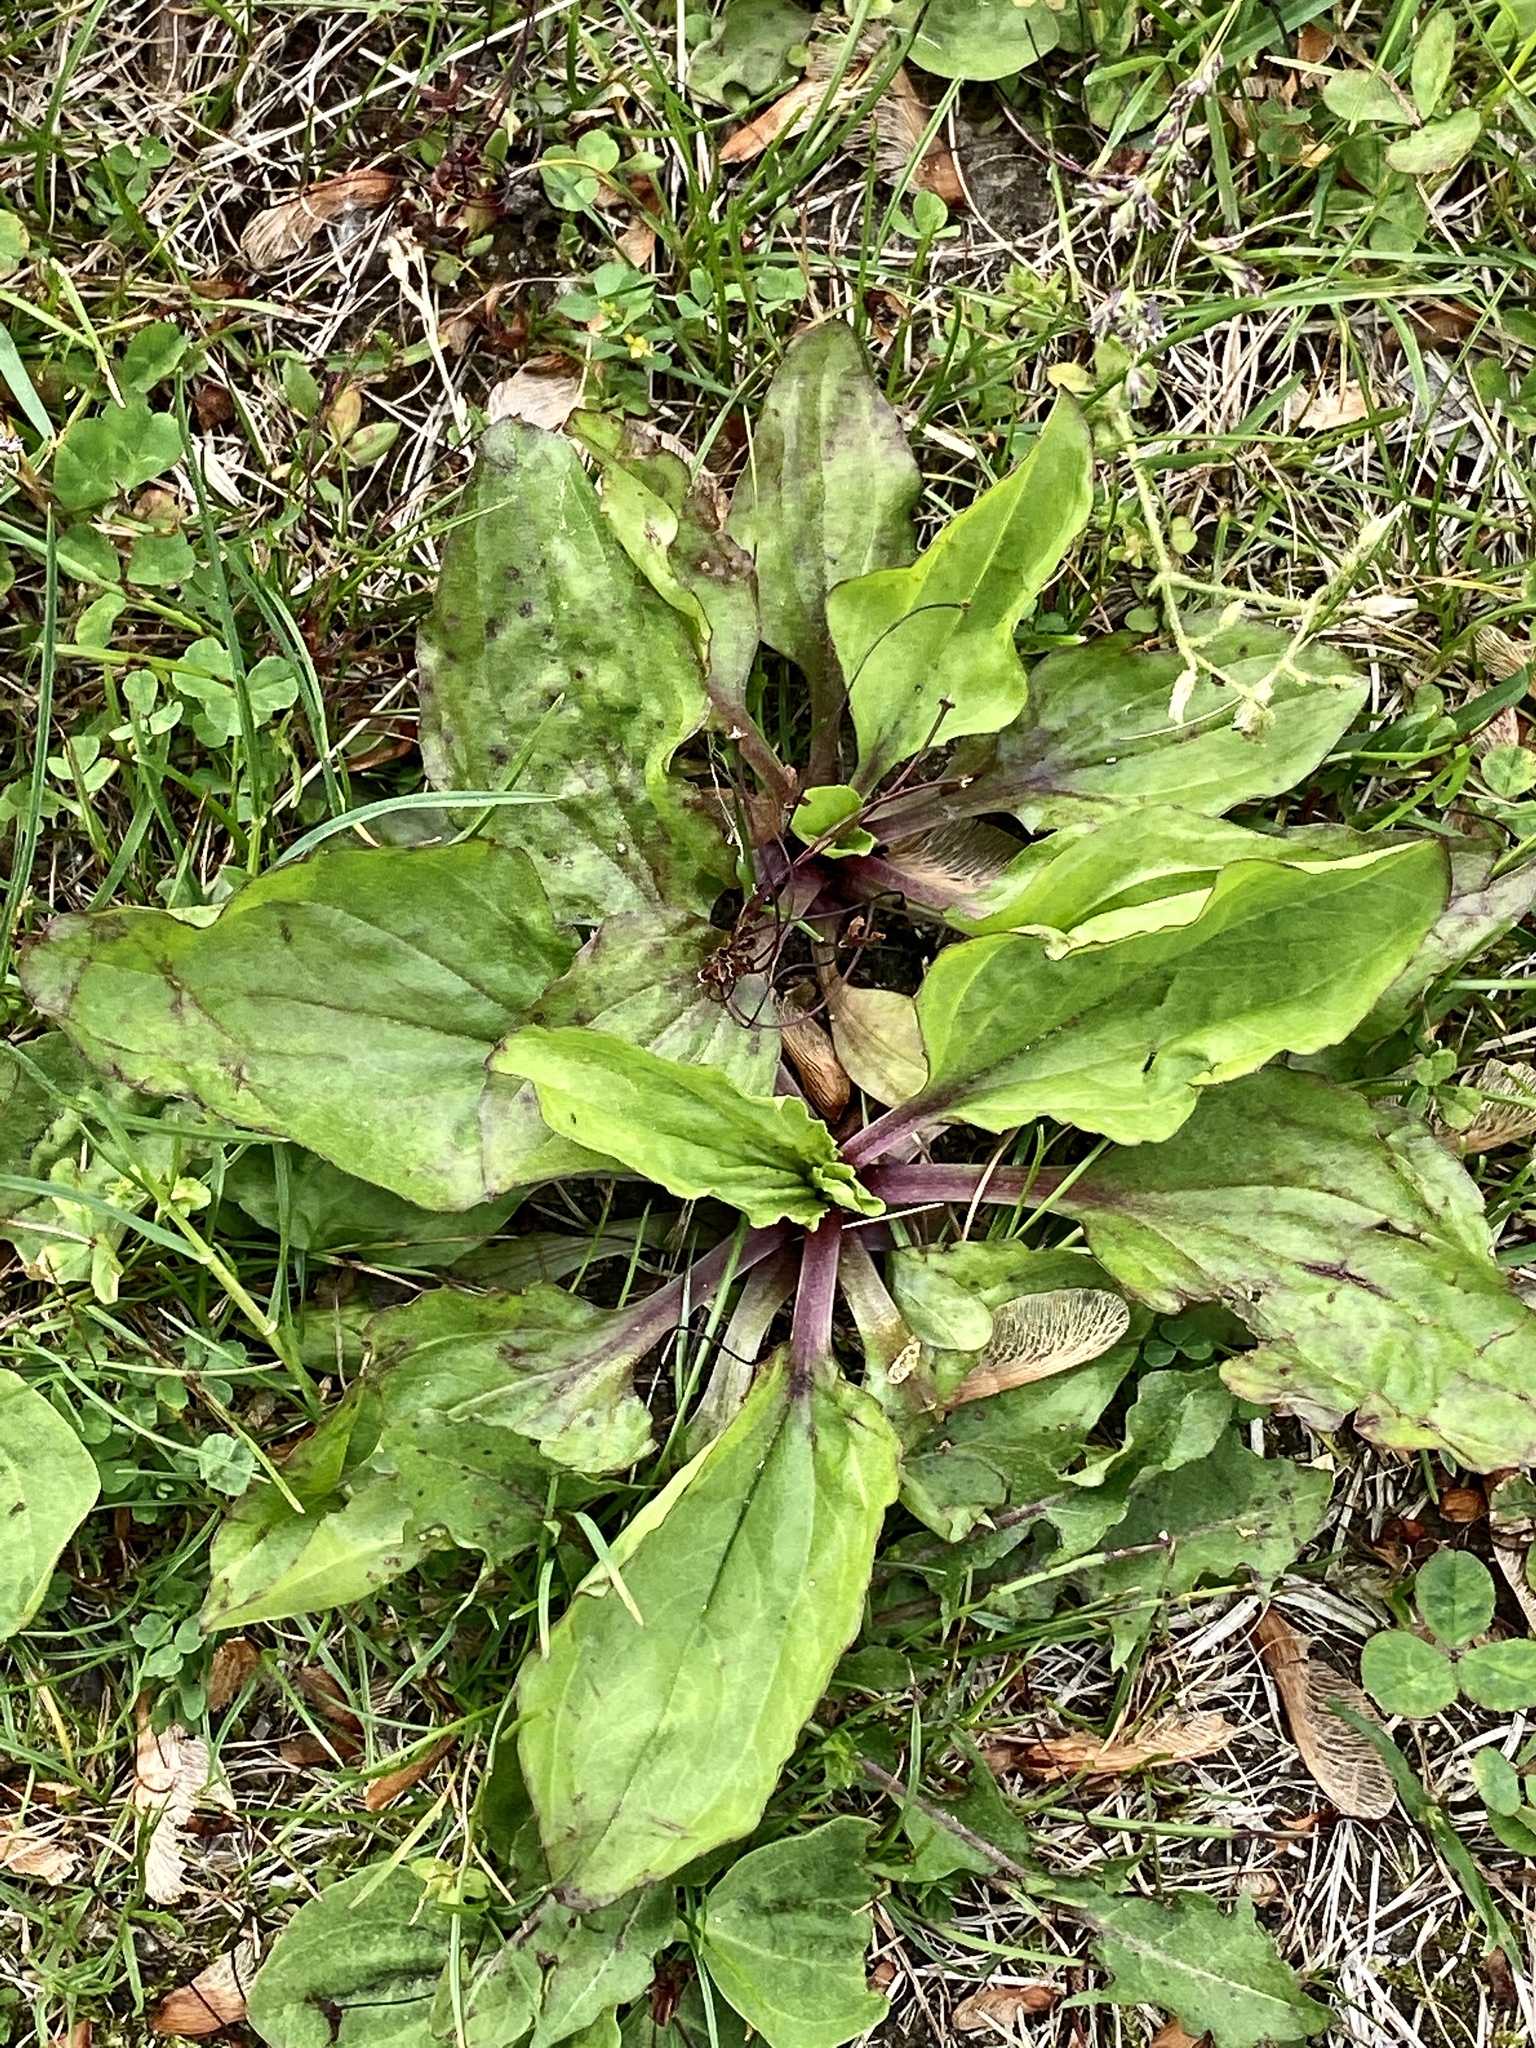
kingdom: Plantae
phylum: Tracheophyta
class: Magnoliopsida
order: Lamiales
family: Plantaginaceae
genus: Plantago
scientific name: Plantago rugelii
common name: American plantain
